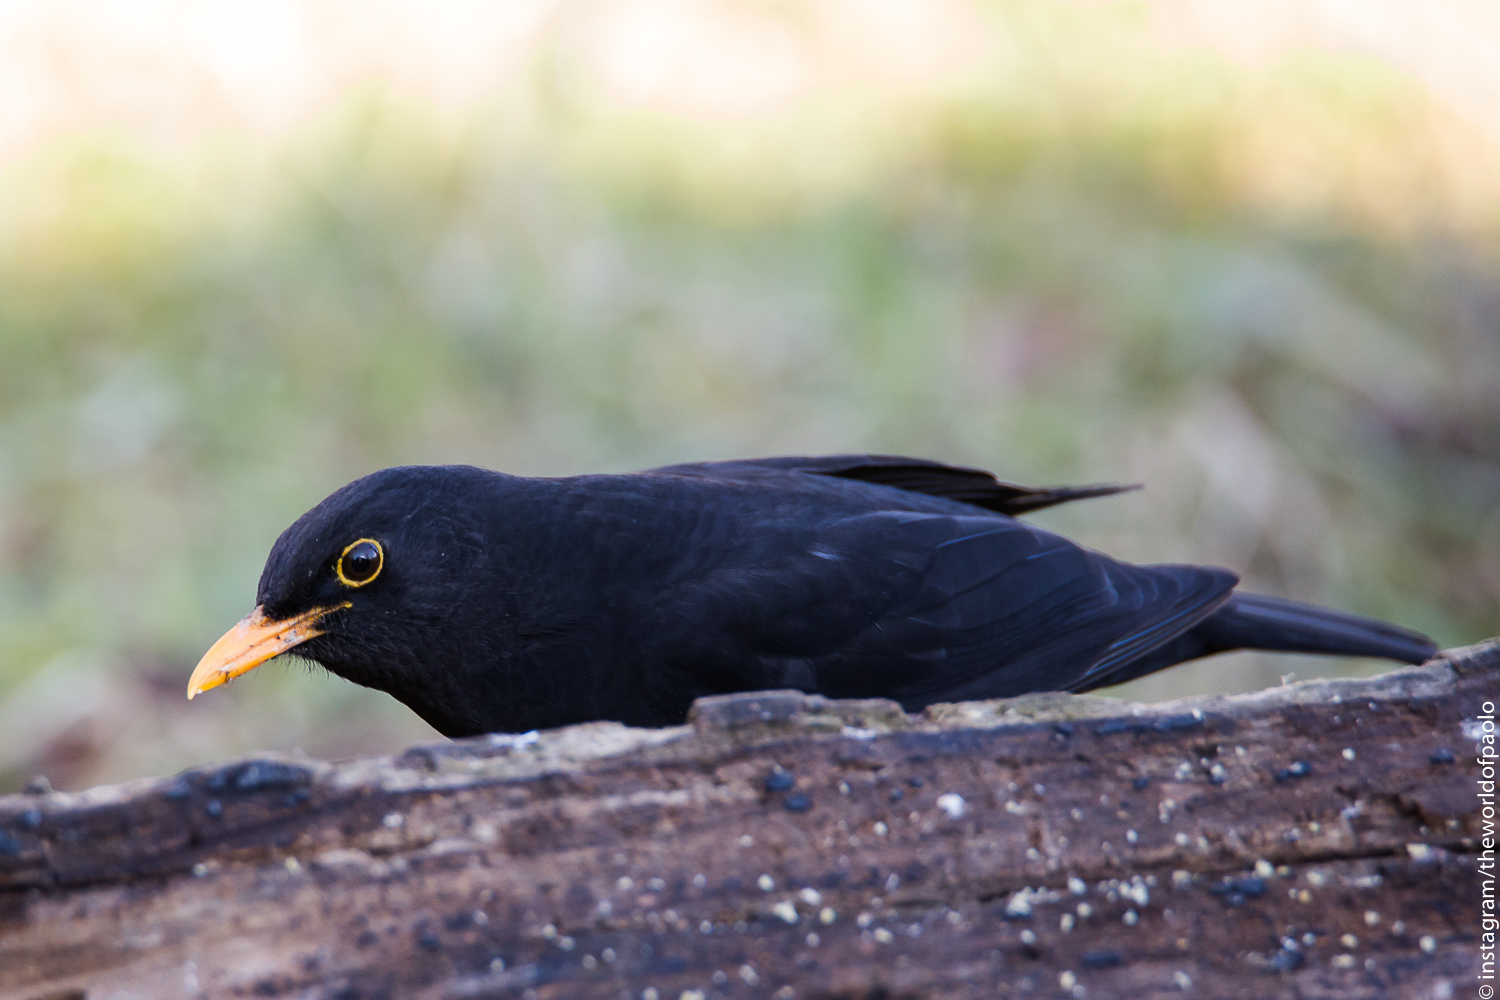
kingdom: Animalia
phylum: Chordata
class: Aves
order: Passeriformes
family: Turdidae
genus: Turdus
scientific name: Turdus merula
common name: Common blackbird
